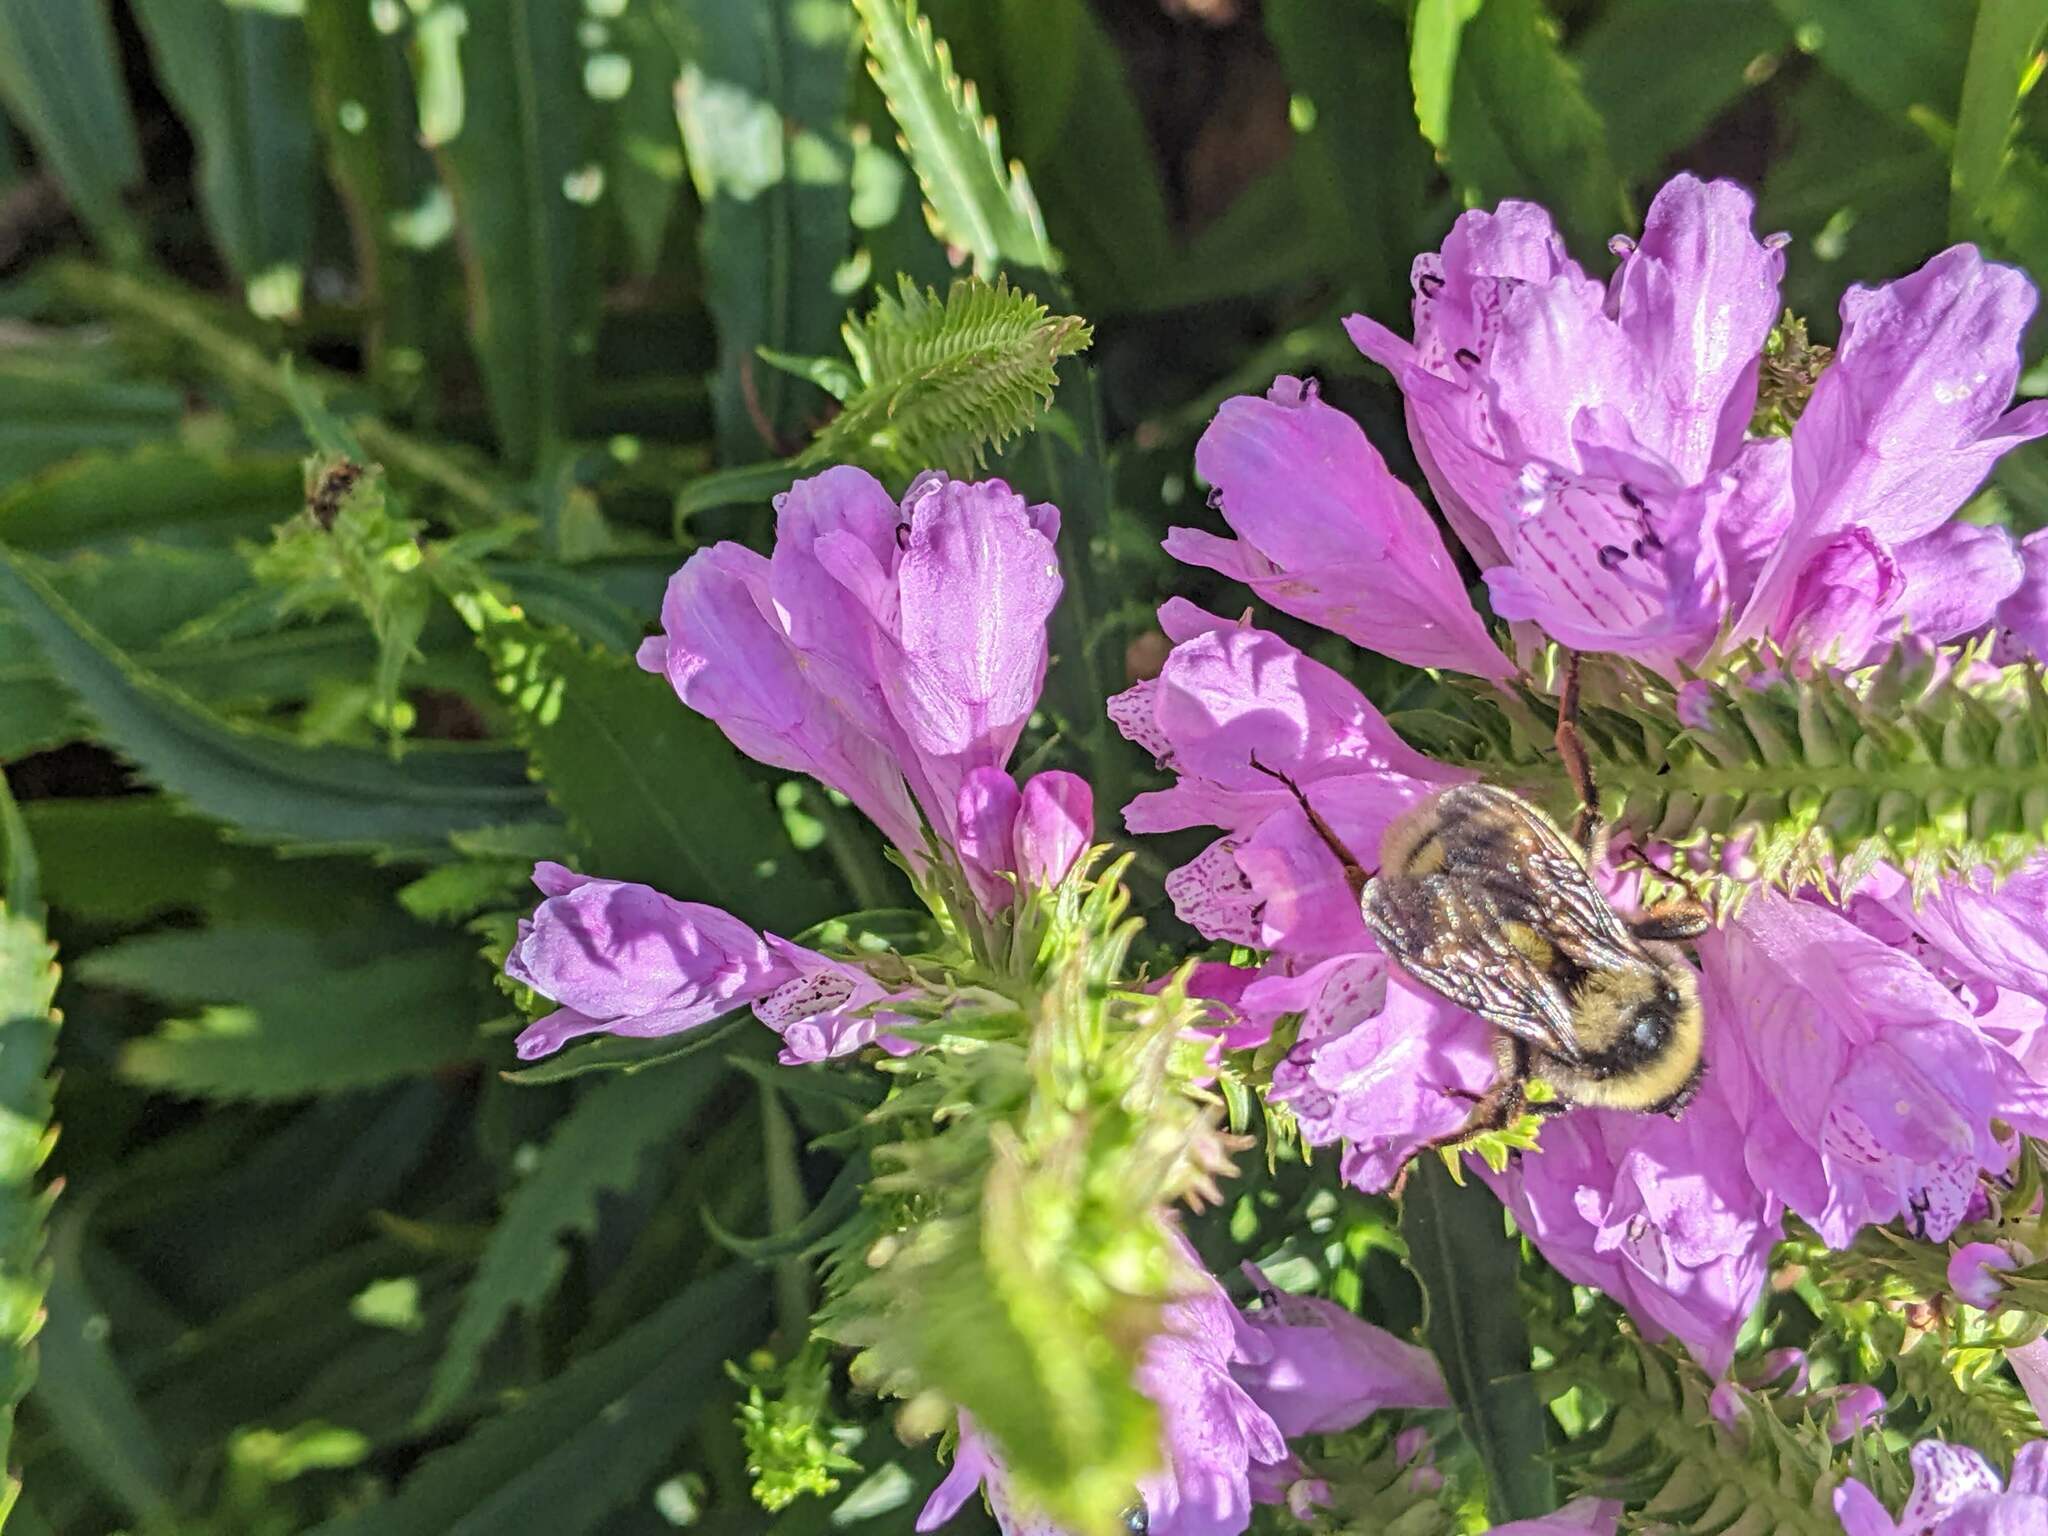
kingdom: Animalia
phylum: Arthropoda
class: Insecta
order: Hymenoptera
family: Apidae
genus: Bombus
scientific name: Bombus pensylvanicus
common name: Bumble bee
